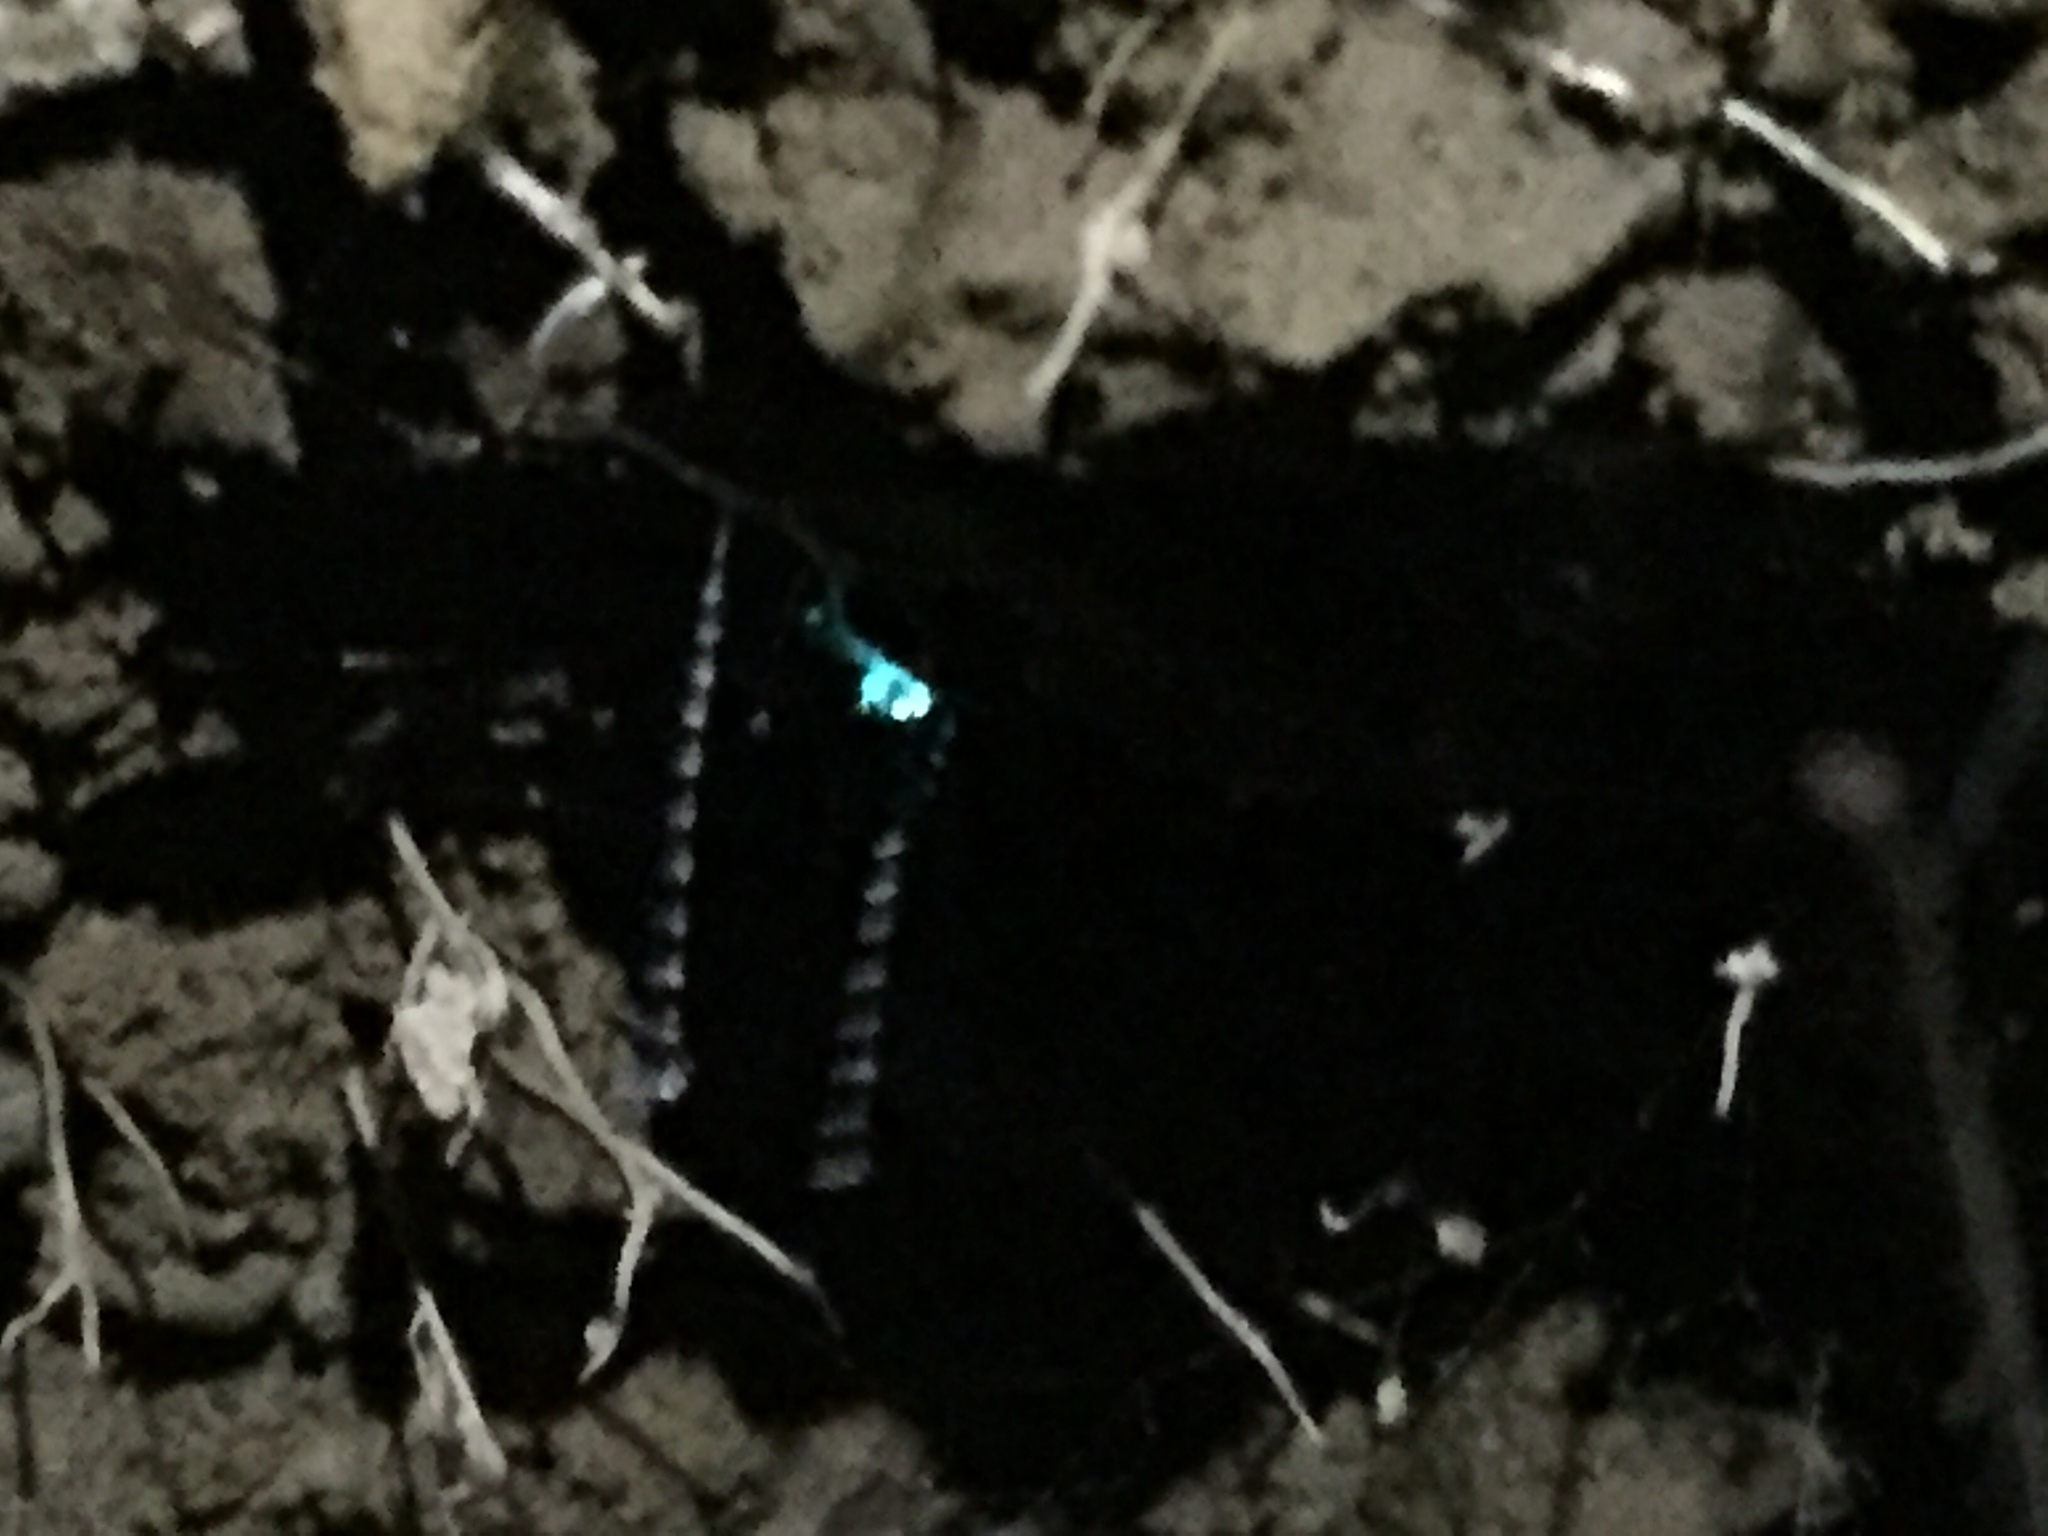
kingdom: Animalia
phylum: Arthropoda
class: Insecta
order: Diptera
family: Keroplatidae
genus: Arachnocampa
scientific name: Arachnocampa luminosa
